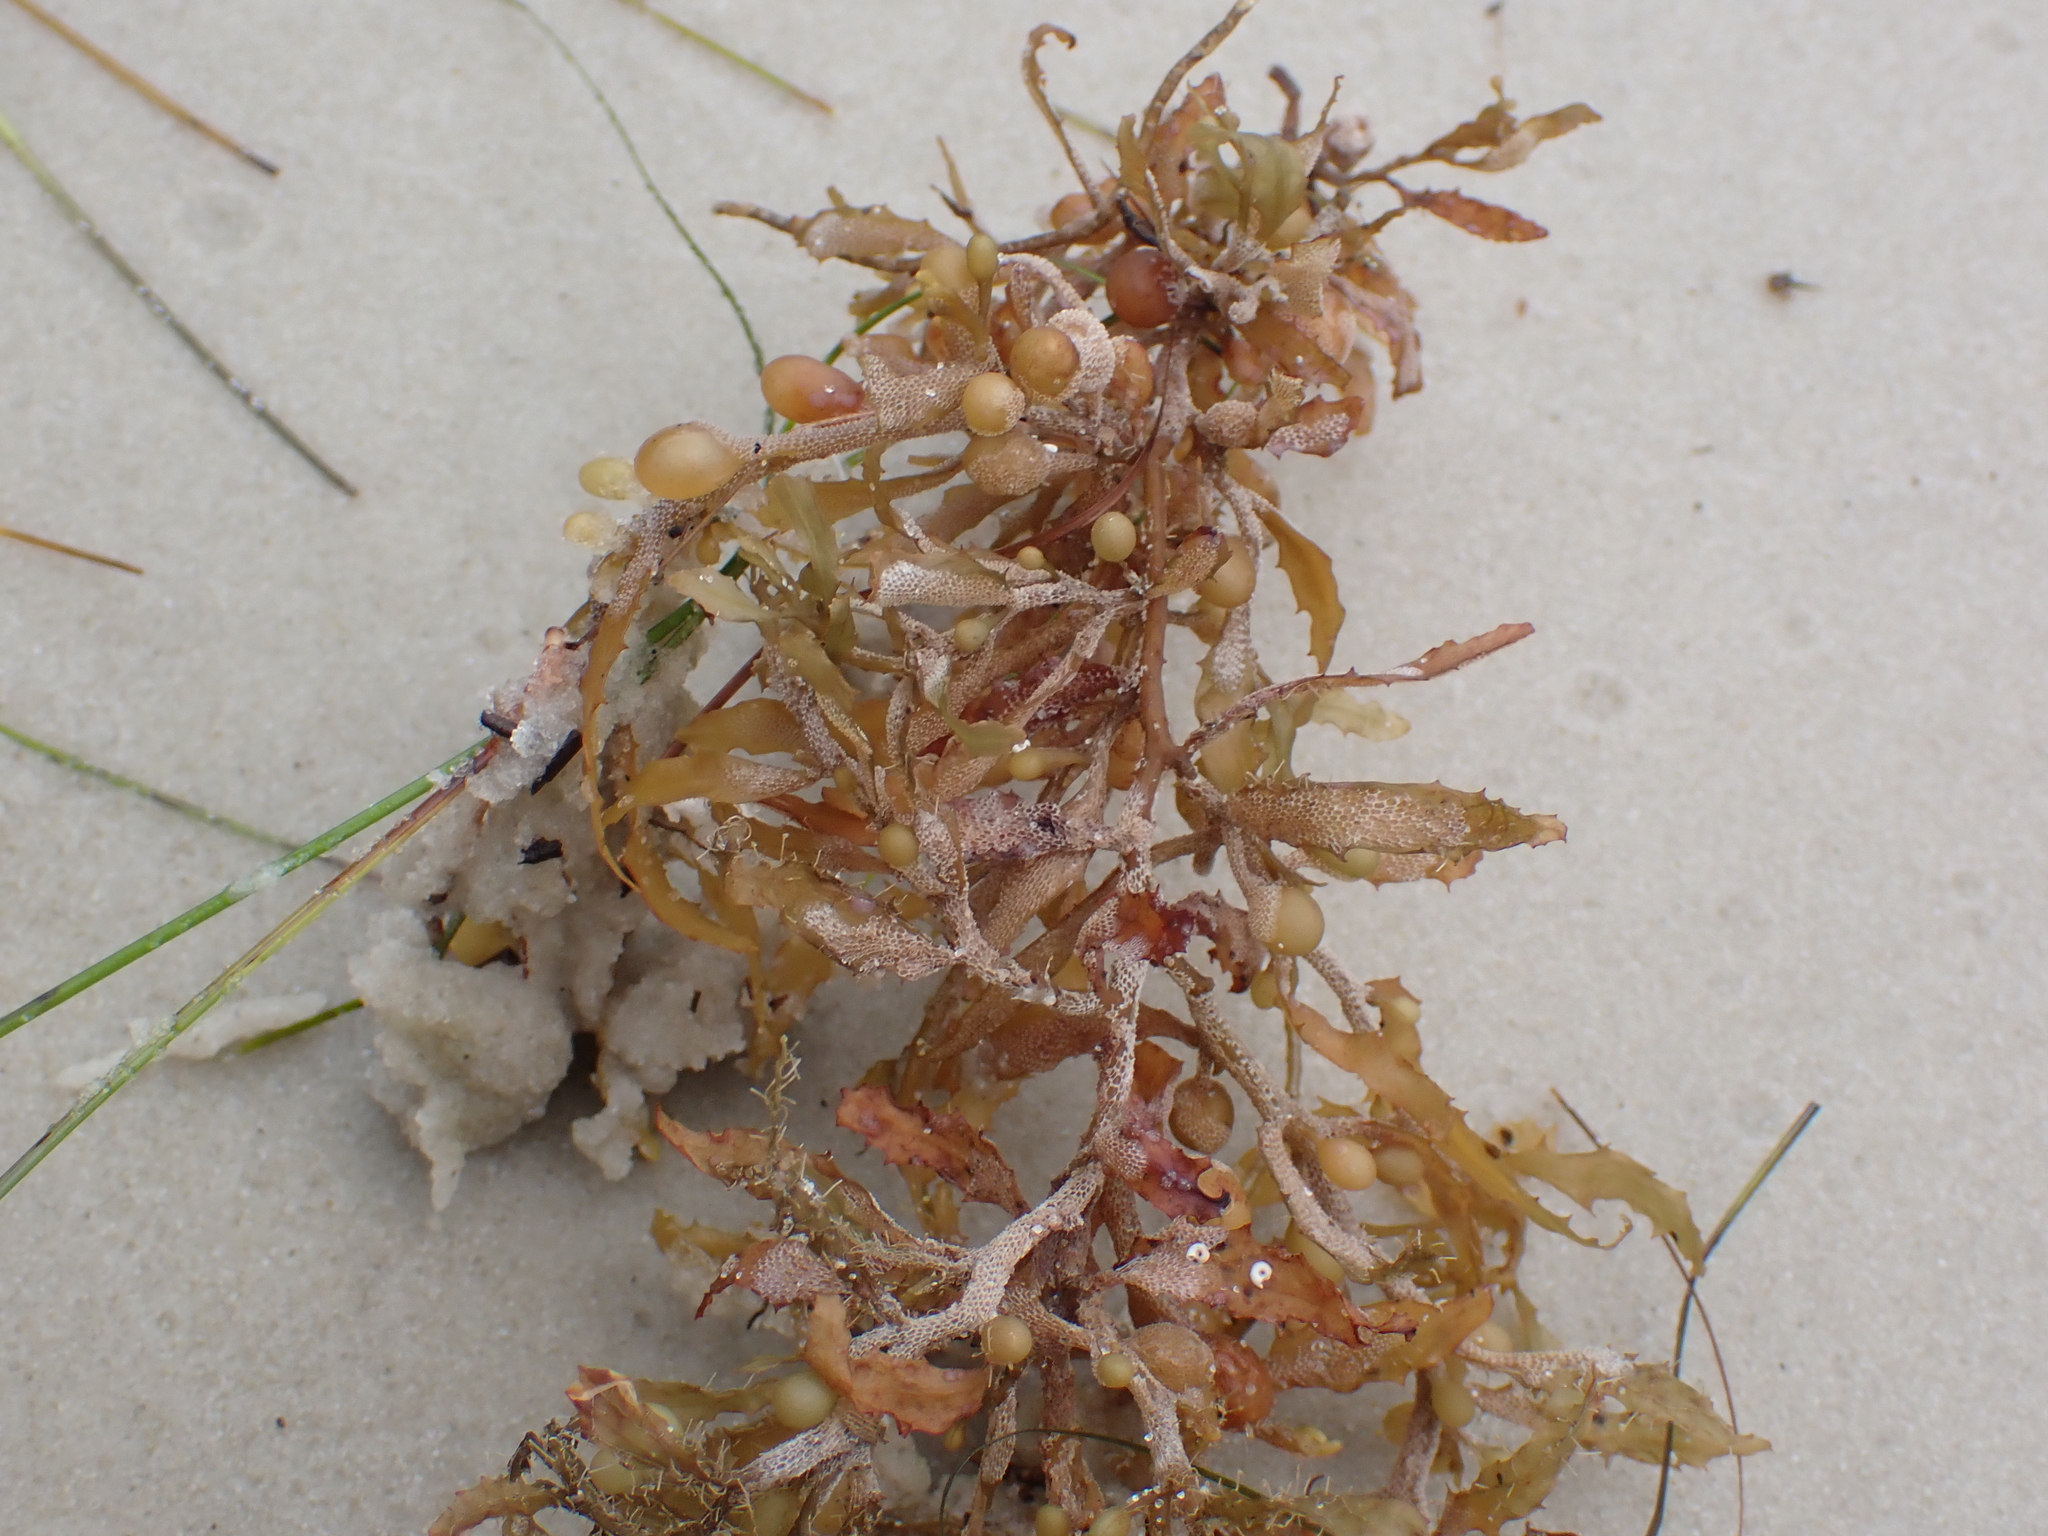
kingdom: Chromista
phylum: Ochrophyta
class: Phaeophyceae
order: Fucales
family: Sargassaceae
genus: Sargassum
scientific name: Sargassum fluitans
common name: Sargassum seaweed
